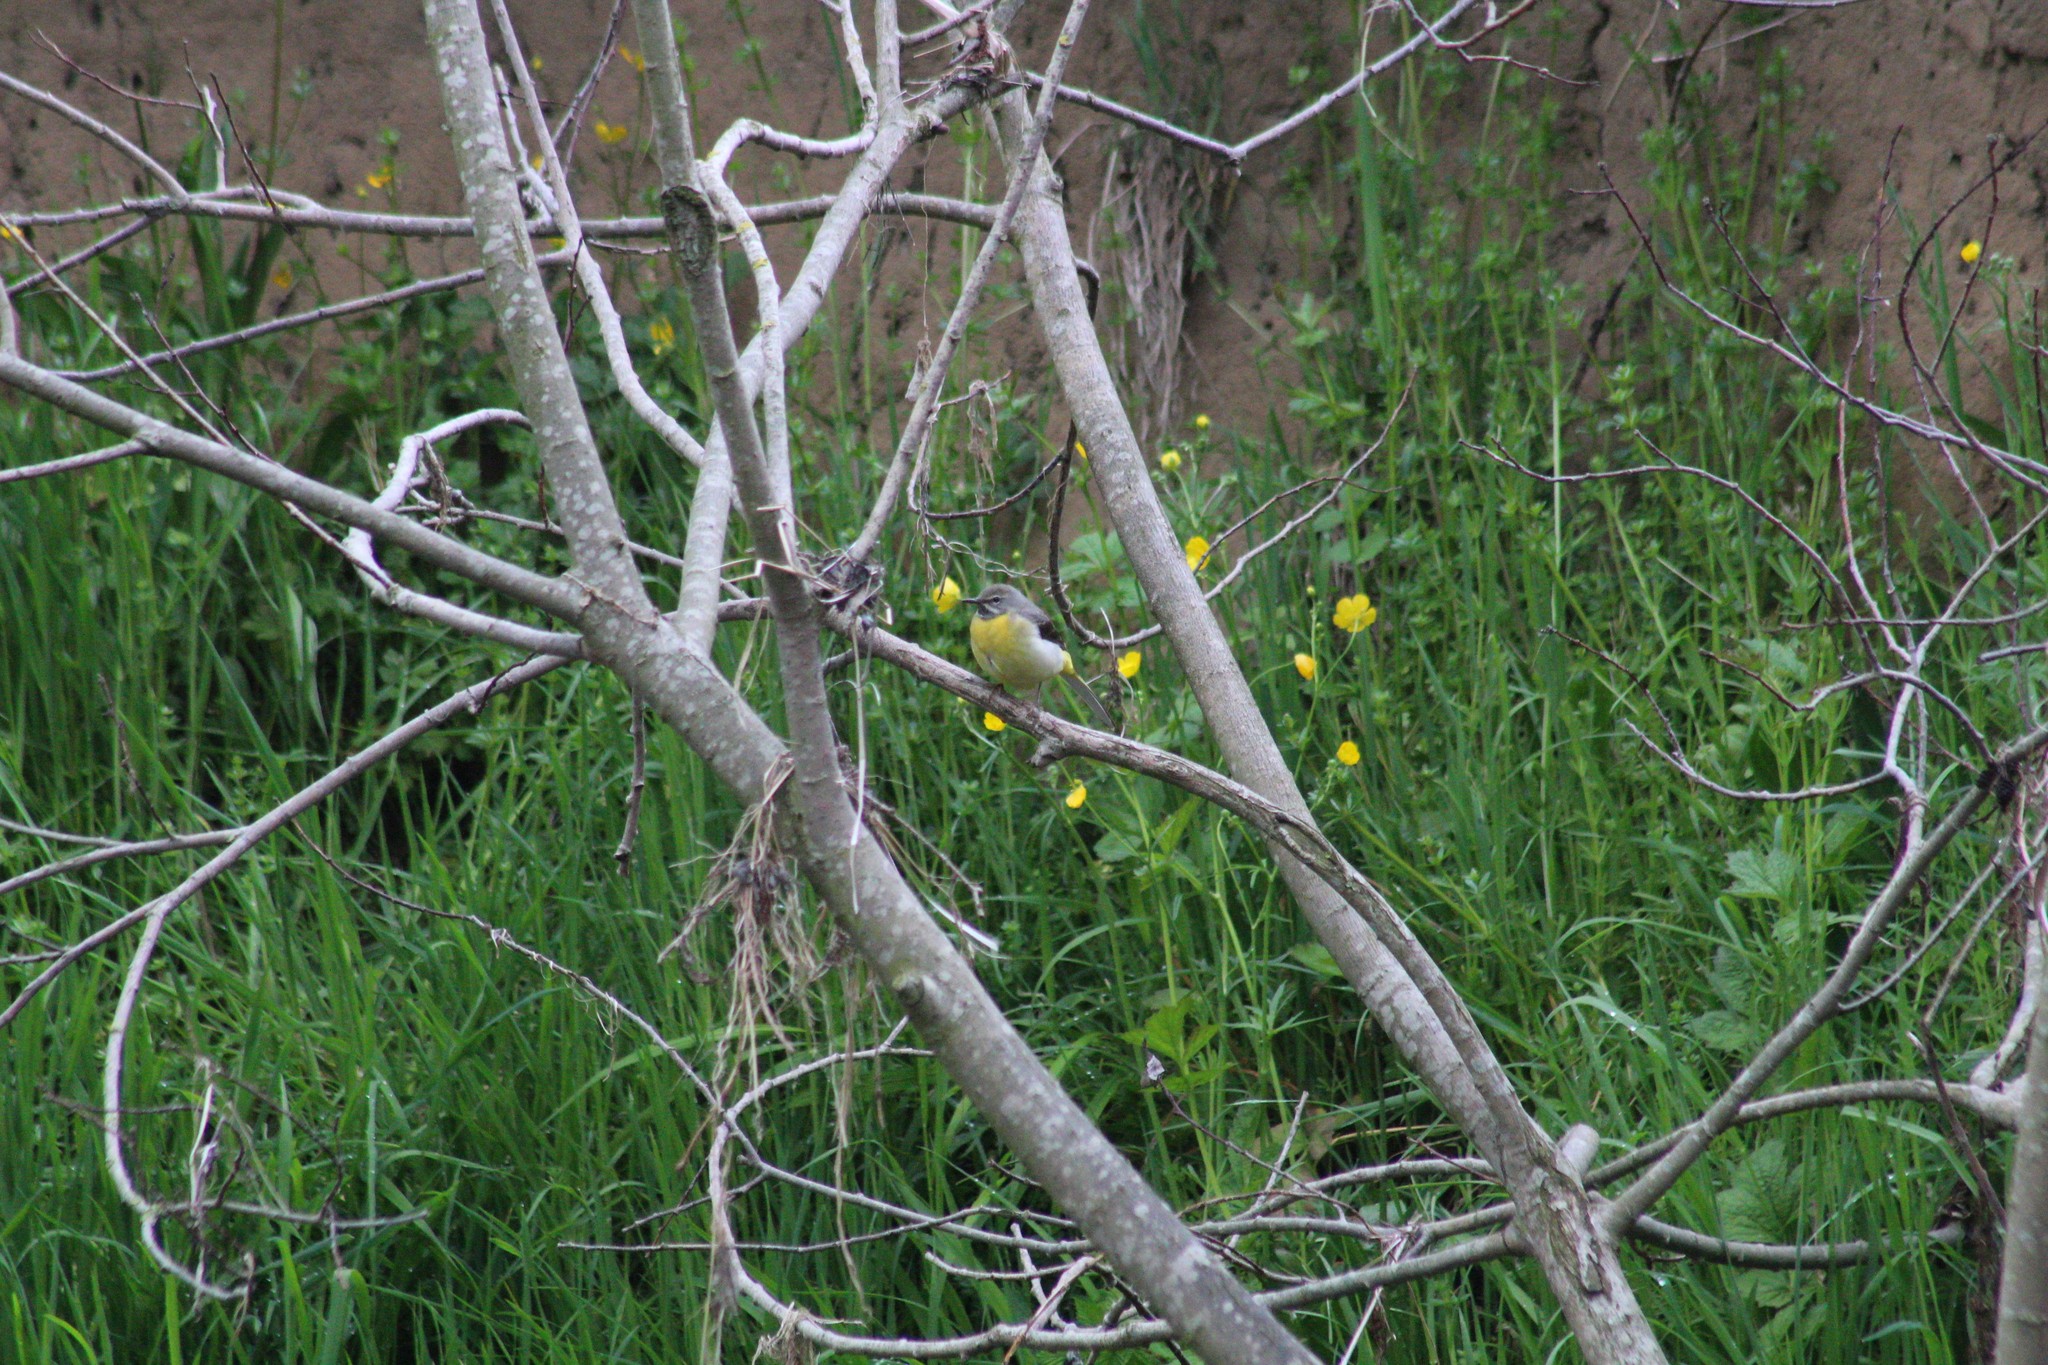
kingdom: Animalia
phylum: Chordata
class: Aves
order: Passeriformes
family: Motacillidae
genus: Motacilla
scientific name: Motacilla cinerea
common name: Grey wagtail
